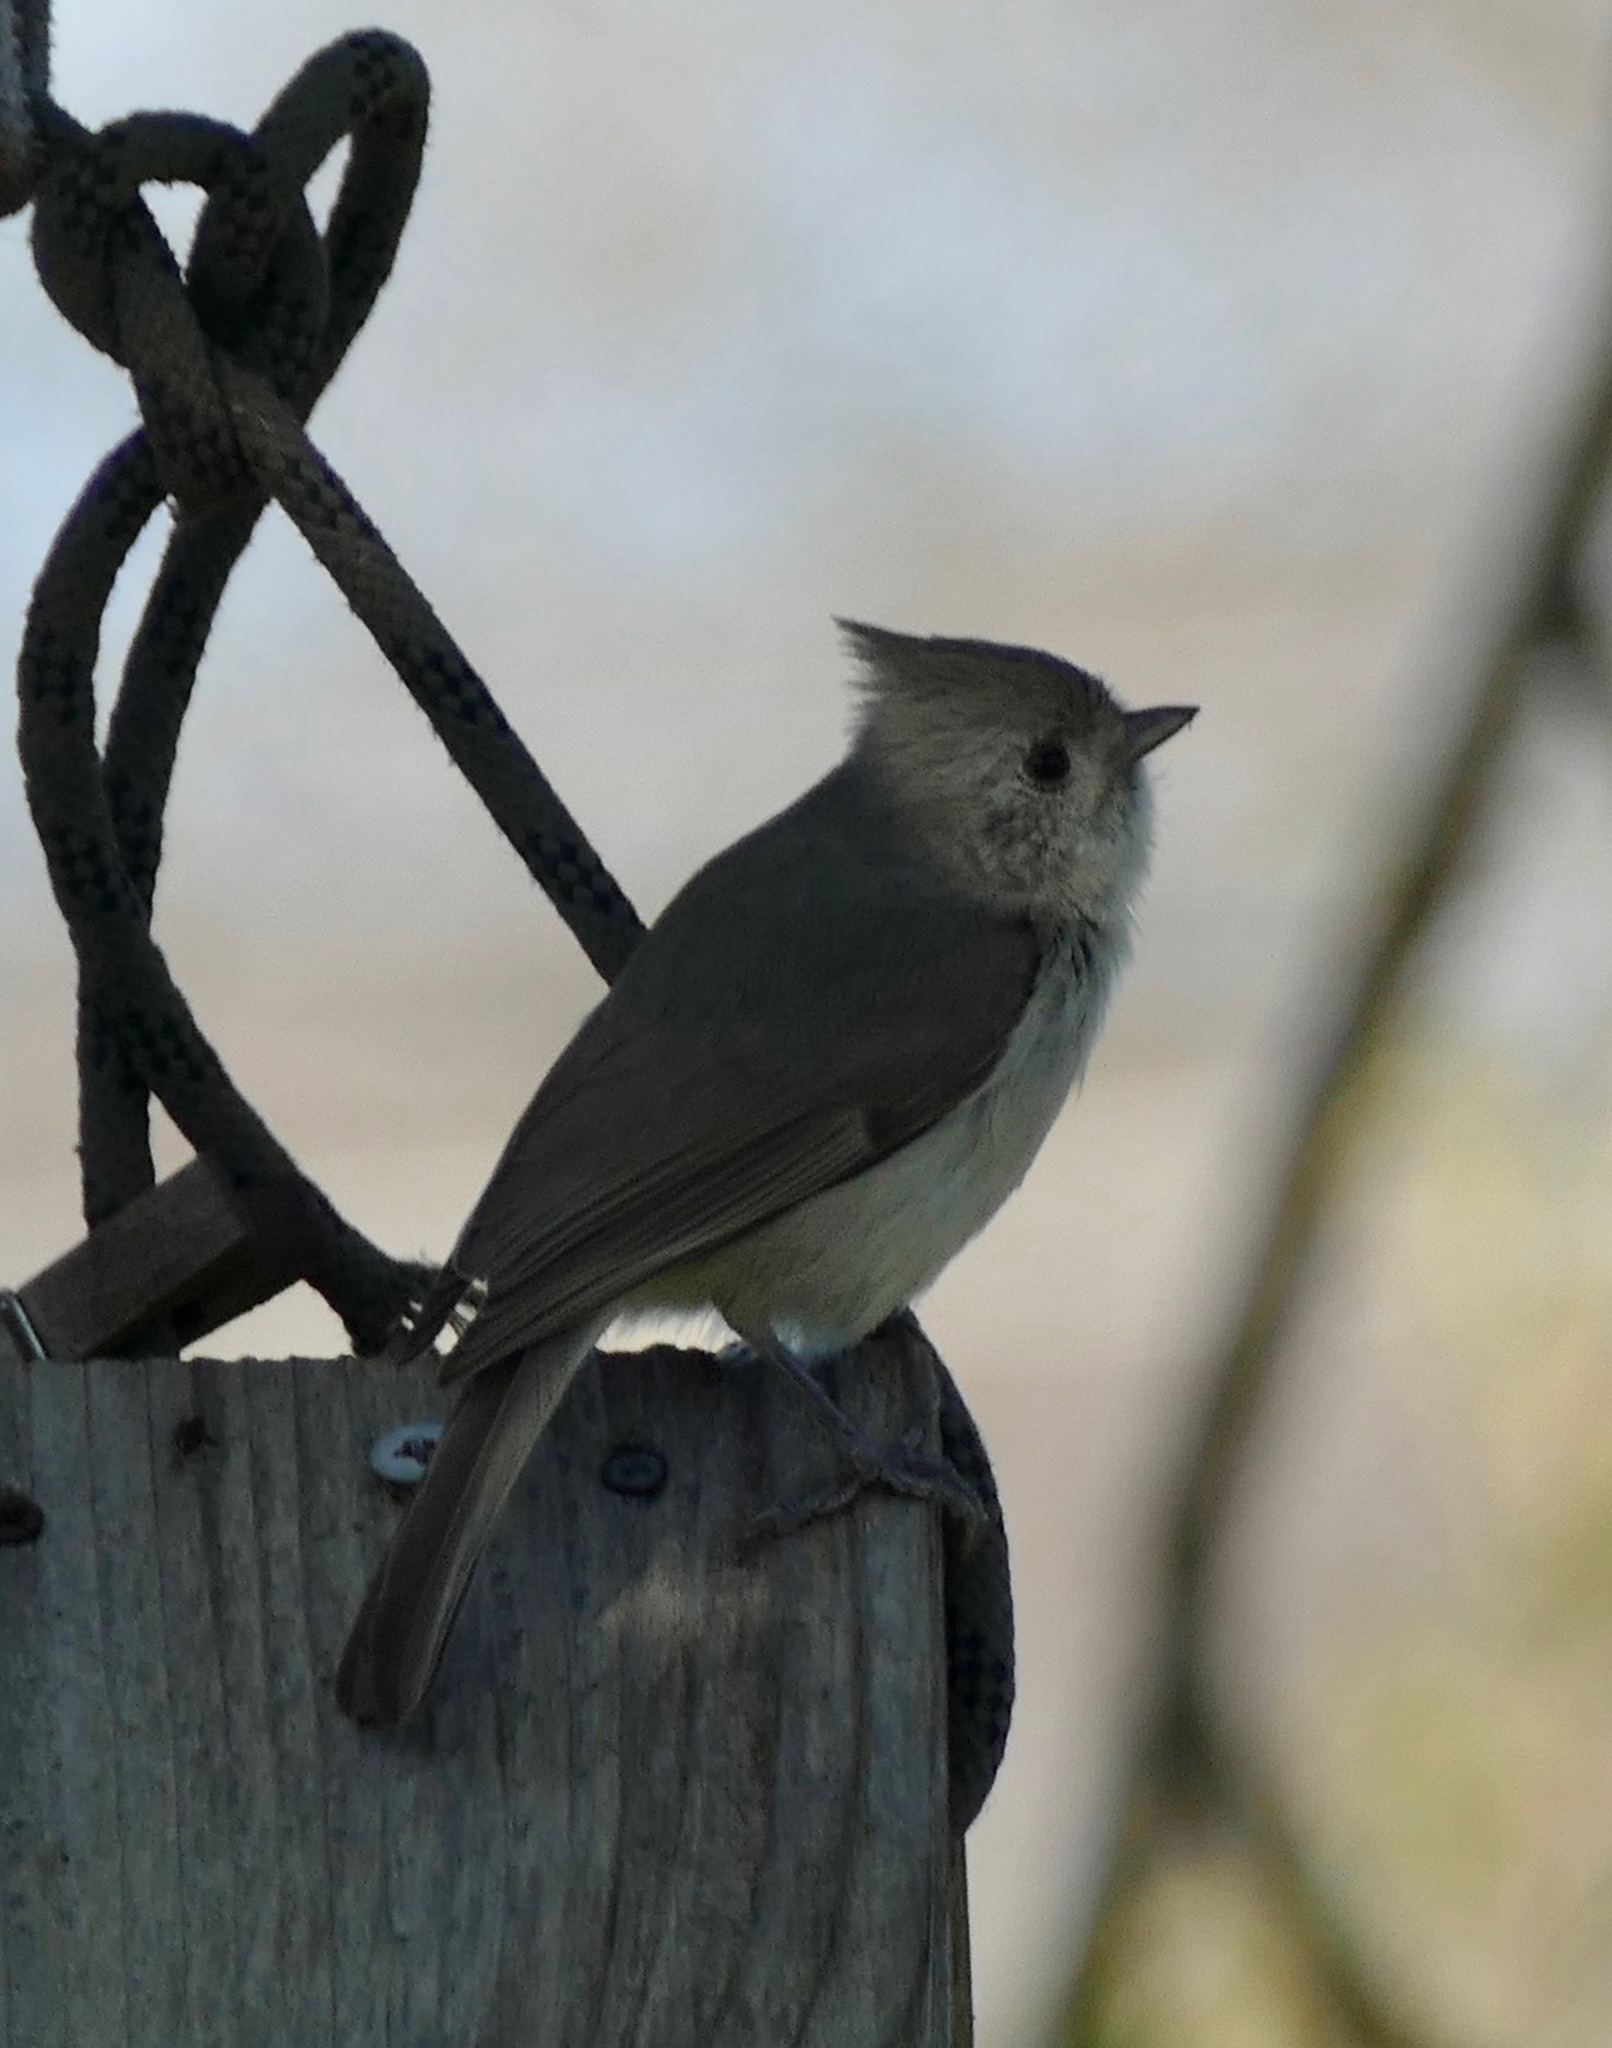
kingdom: Animalia
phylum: Chordata
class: Aves
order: Passeriformes
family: Paridae
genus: Baeolophus
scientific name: Baeolophus inornatus
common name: Oak titmouse
